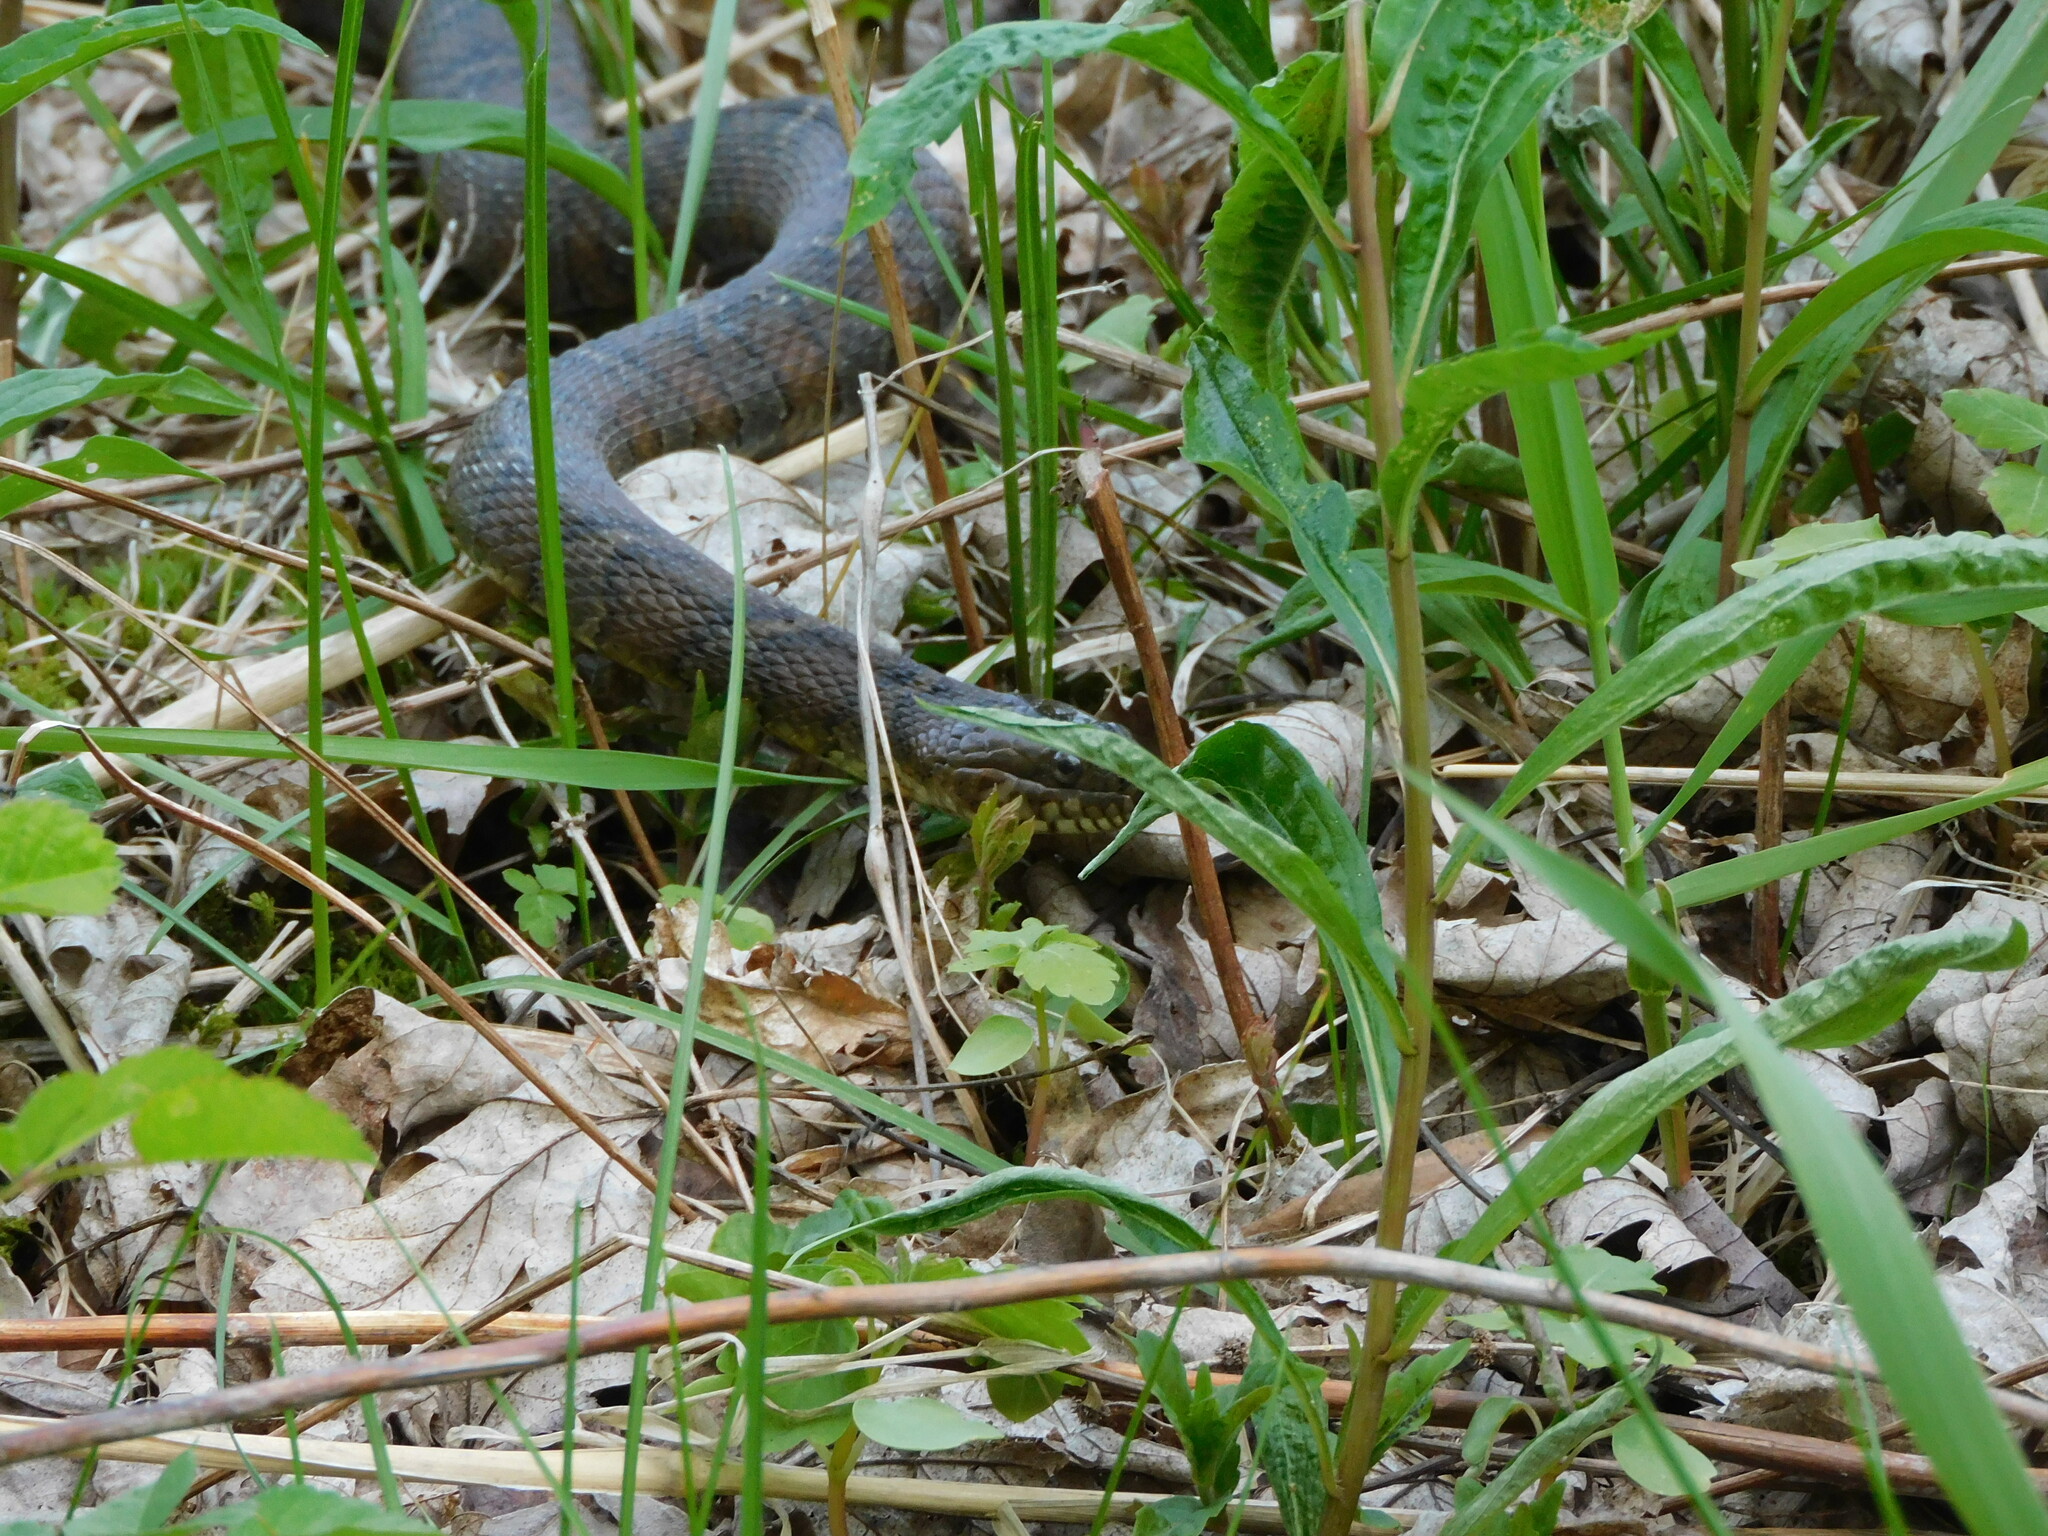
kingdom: Animalia
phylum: Chordata
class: Squamata
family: Colubridae
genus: Nerodia
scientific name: Nerodia sipedon
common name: Northern water snake
